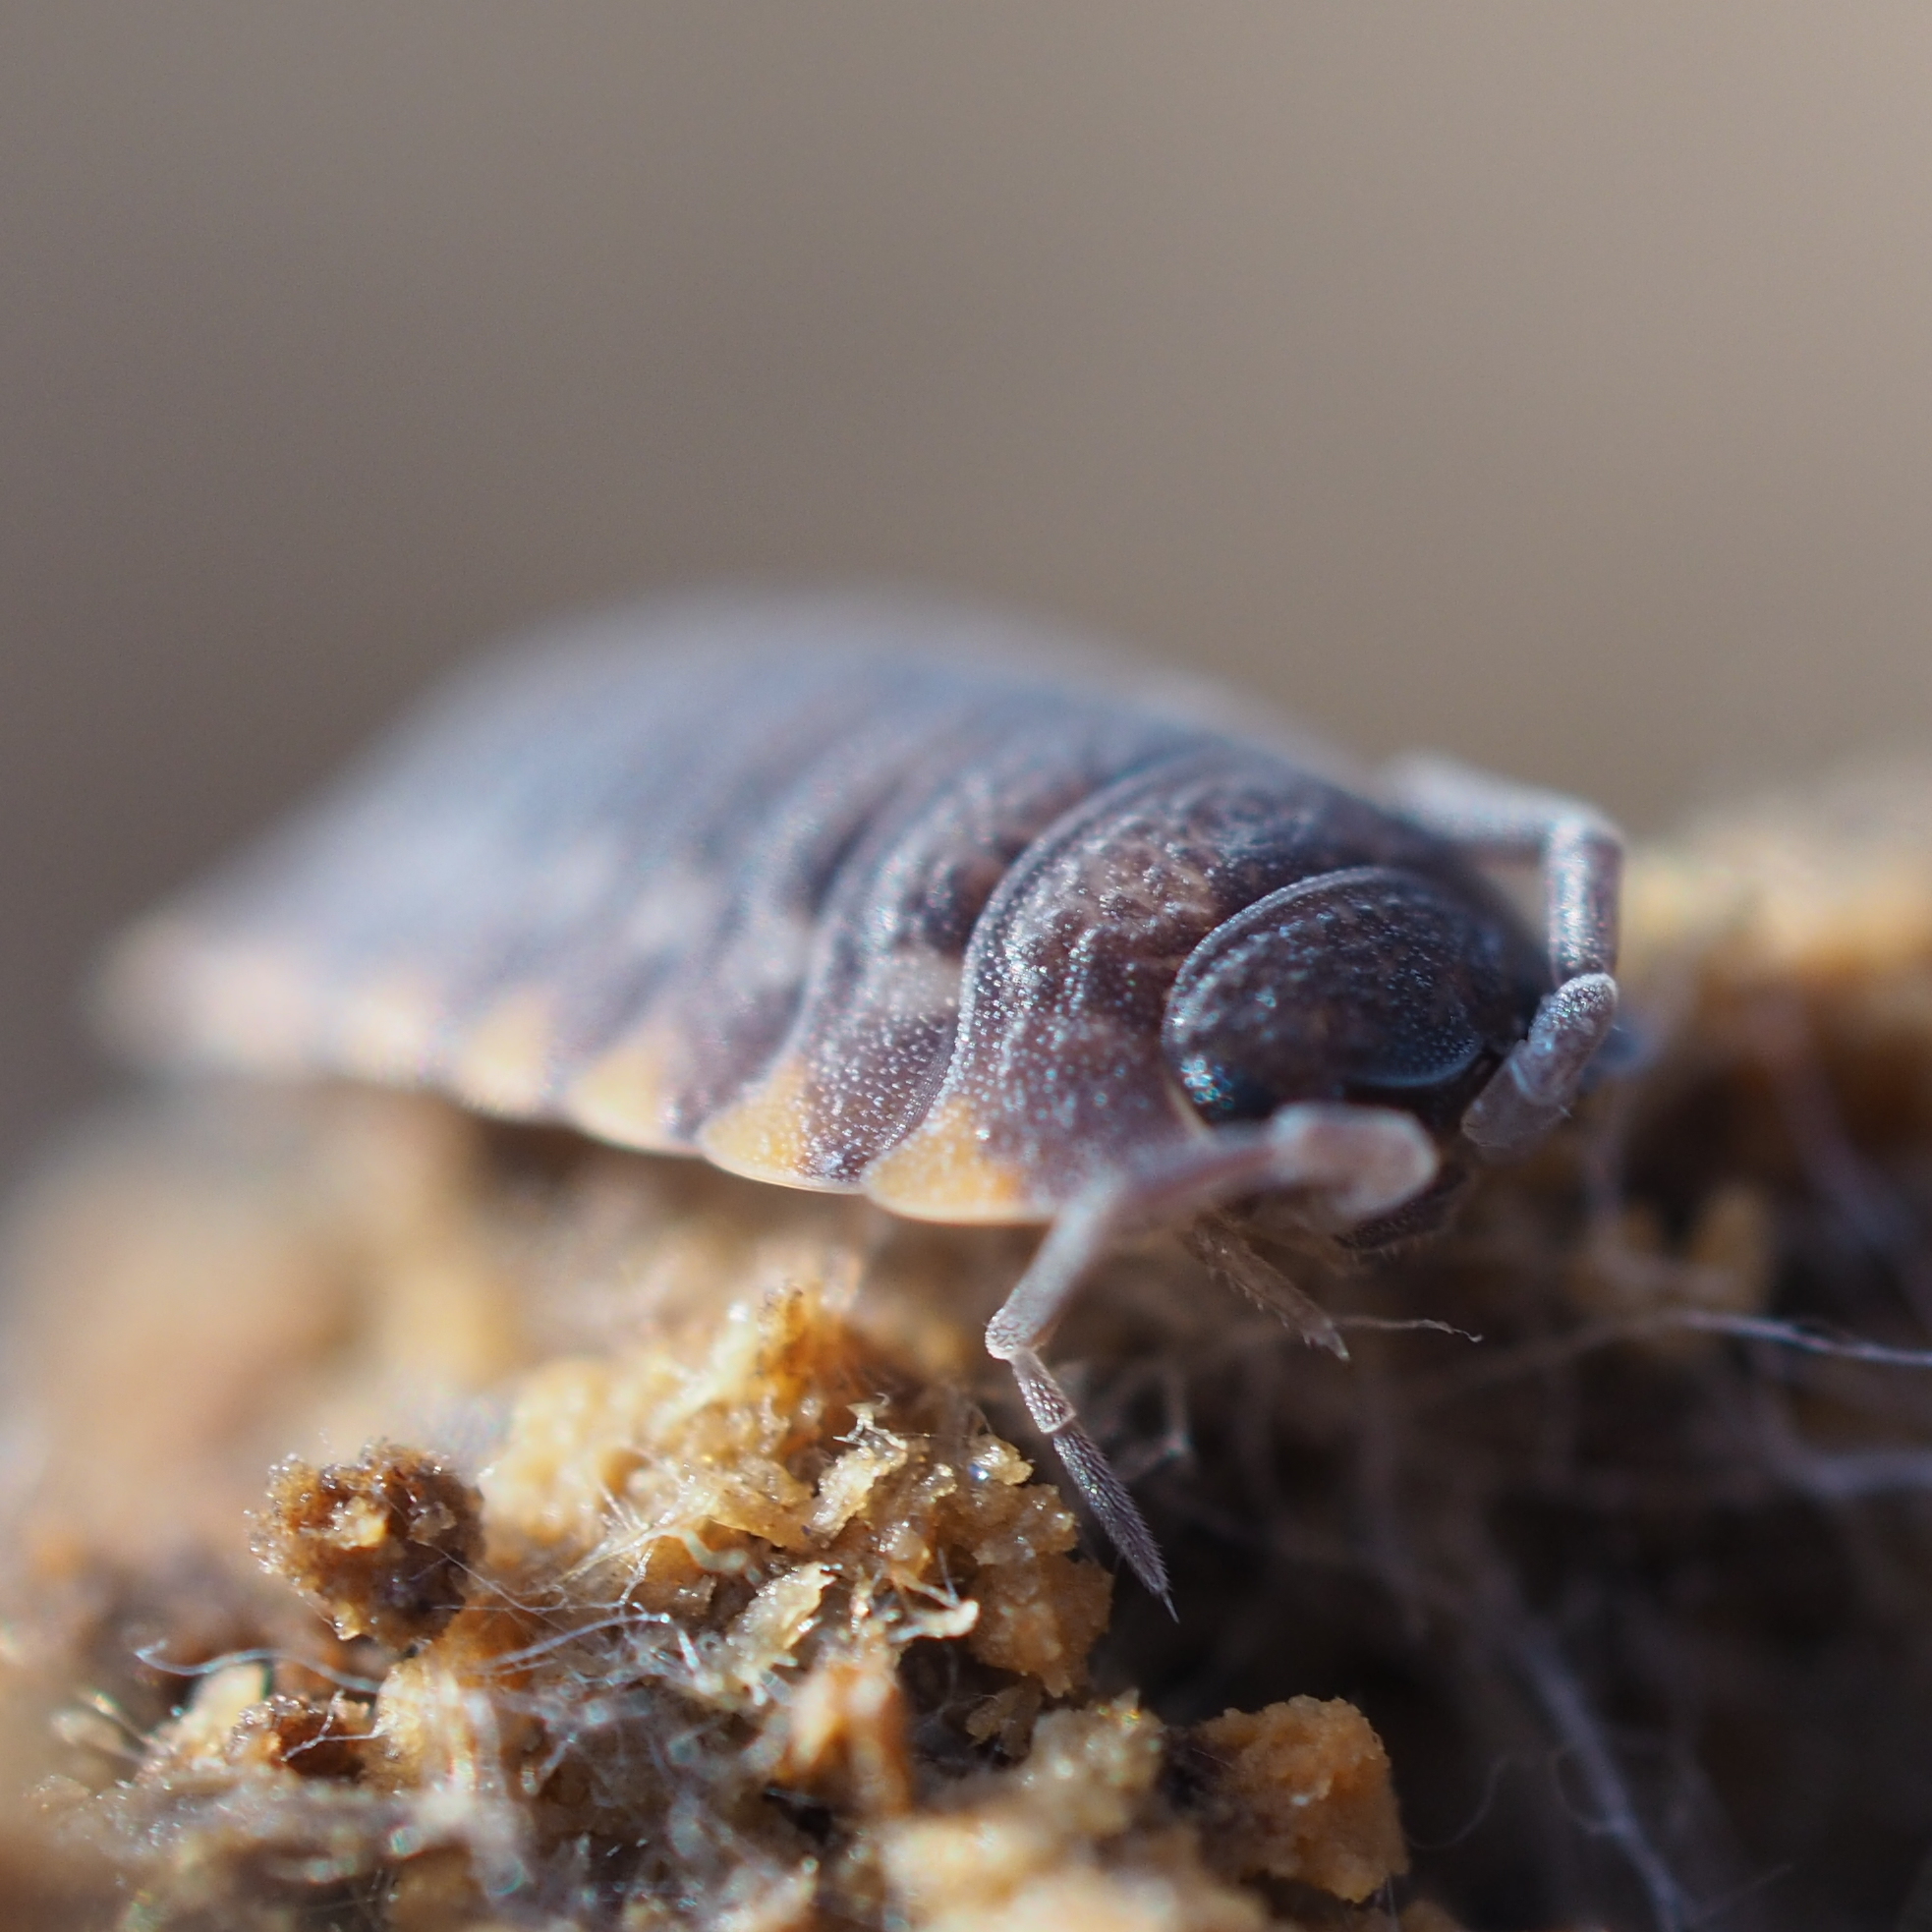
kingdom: Animalia
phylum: Arthropoda
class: Malacostraca
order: Isopoda
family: Trachelipodidae
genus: Trachelipus
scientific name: Trachelipus ratzeburgii
